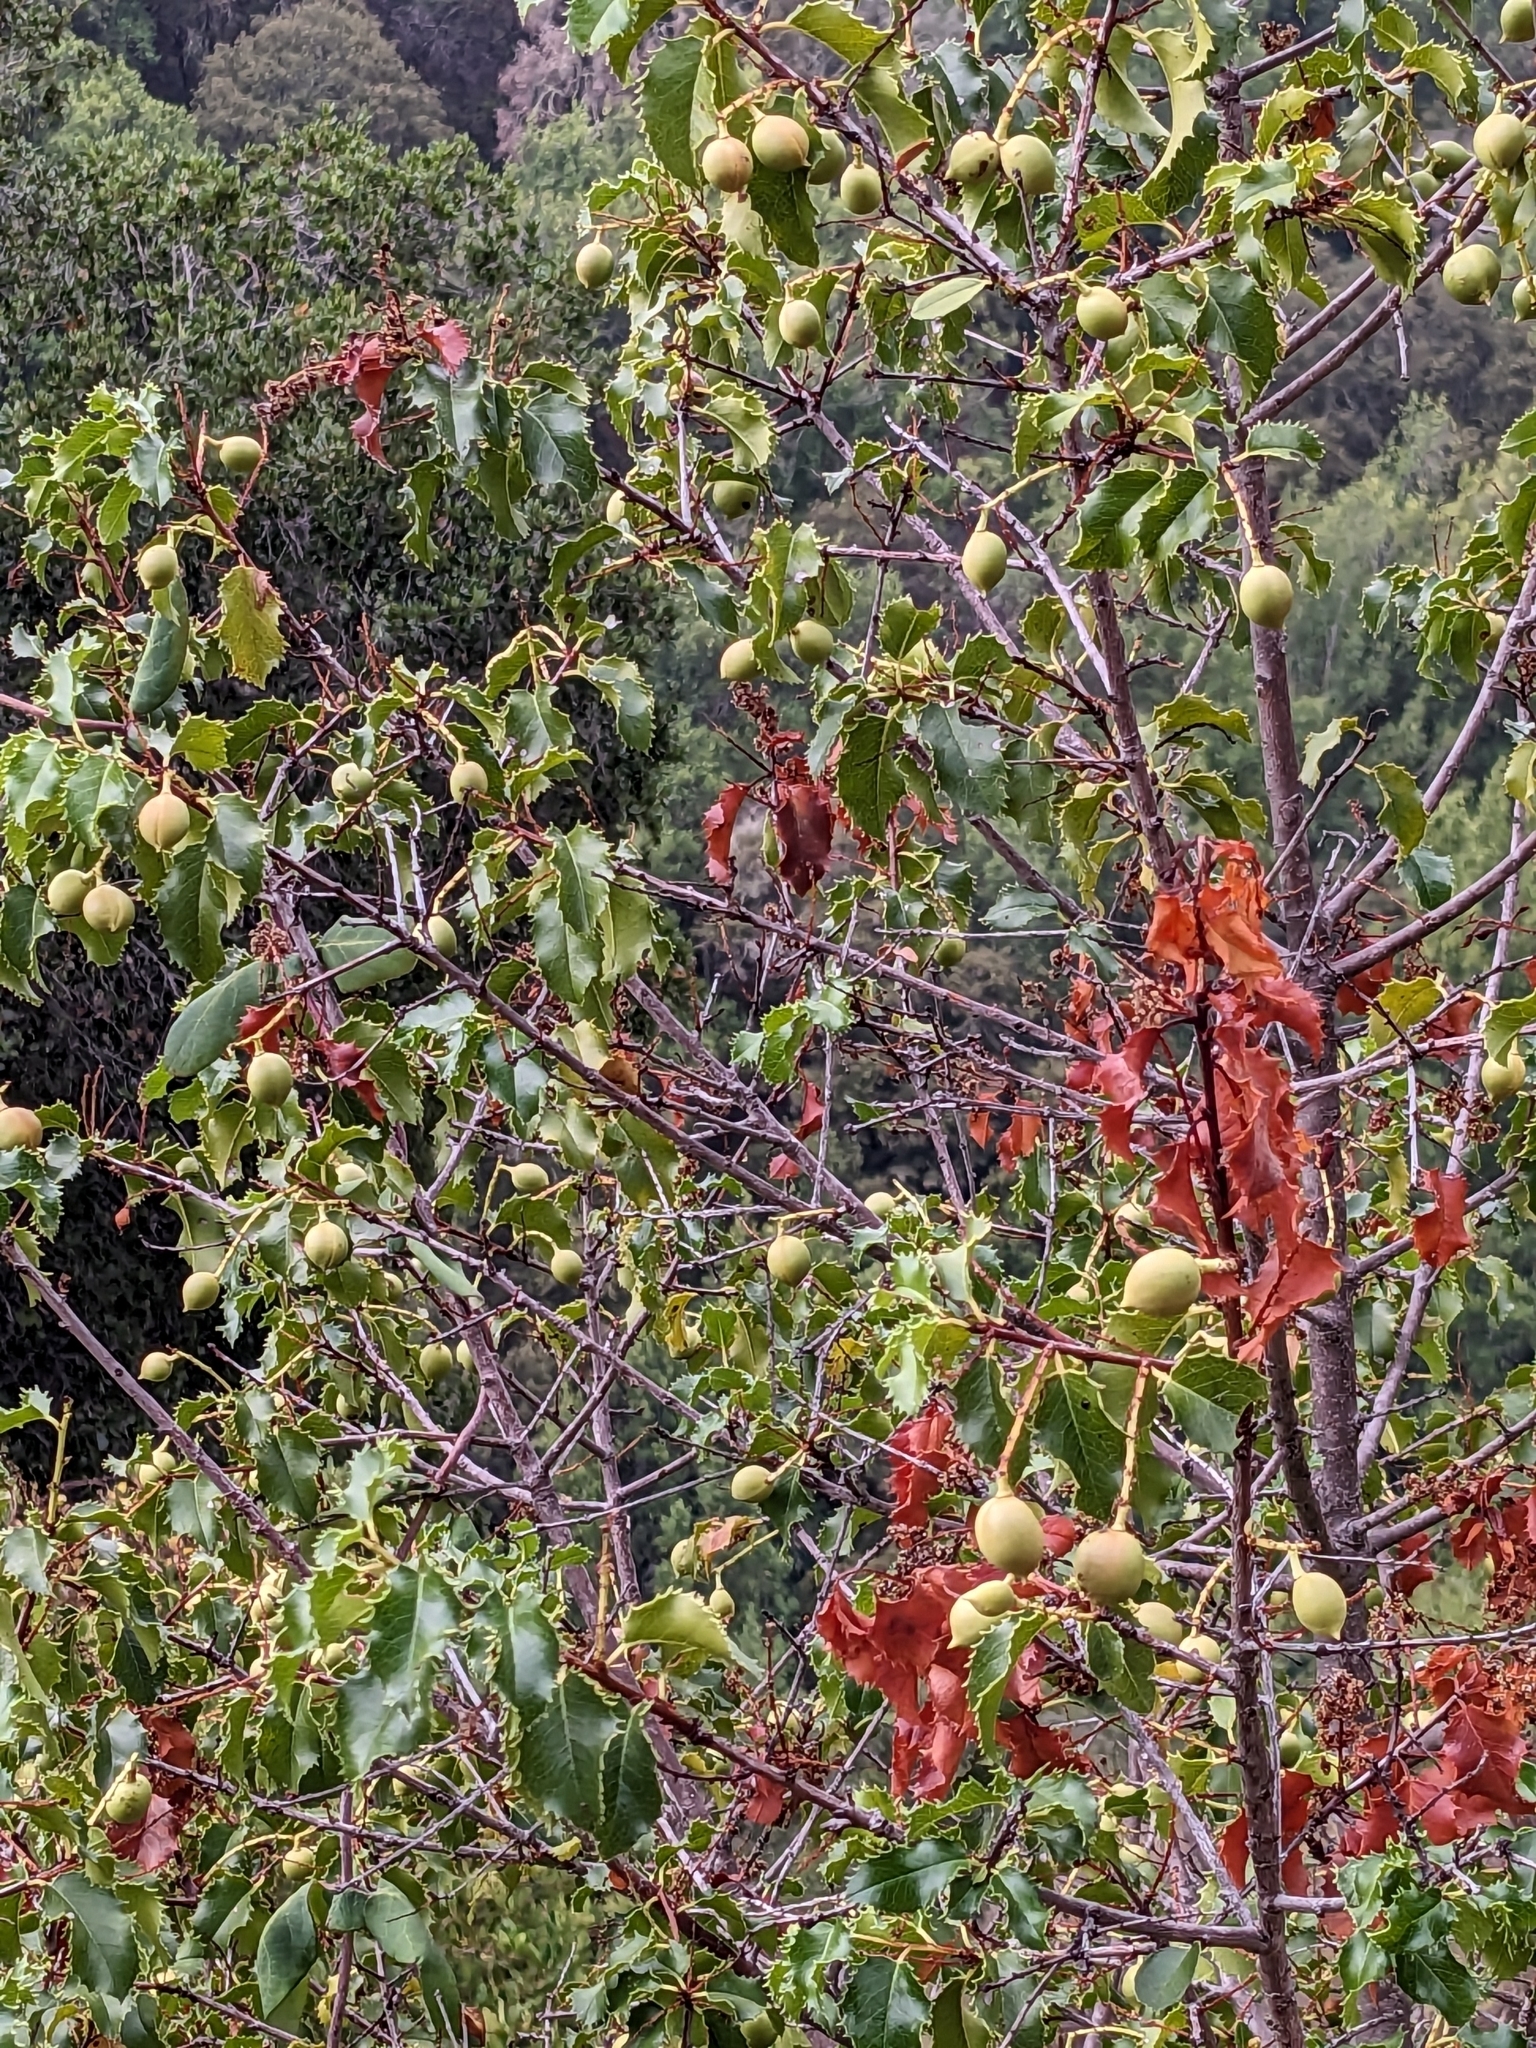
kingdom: Plantae
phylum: Tracheophyta
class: Magnoliopsida
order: Rosales
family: Rosaceae
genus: Prunus
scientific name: Prunus ilicifolia
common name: Hollyleaf cherry
